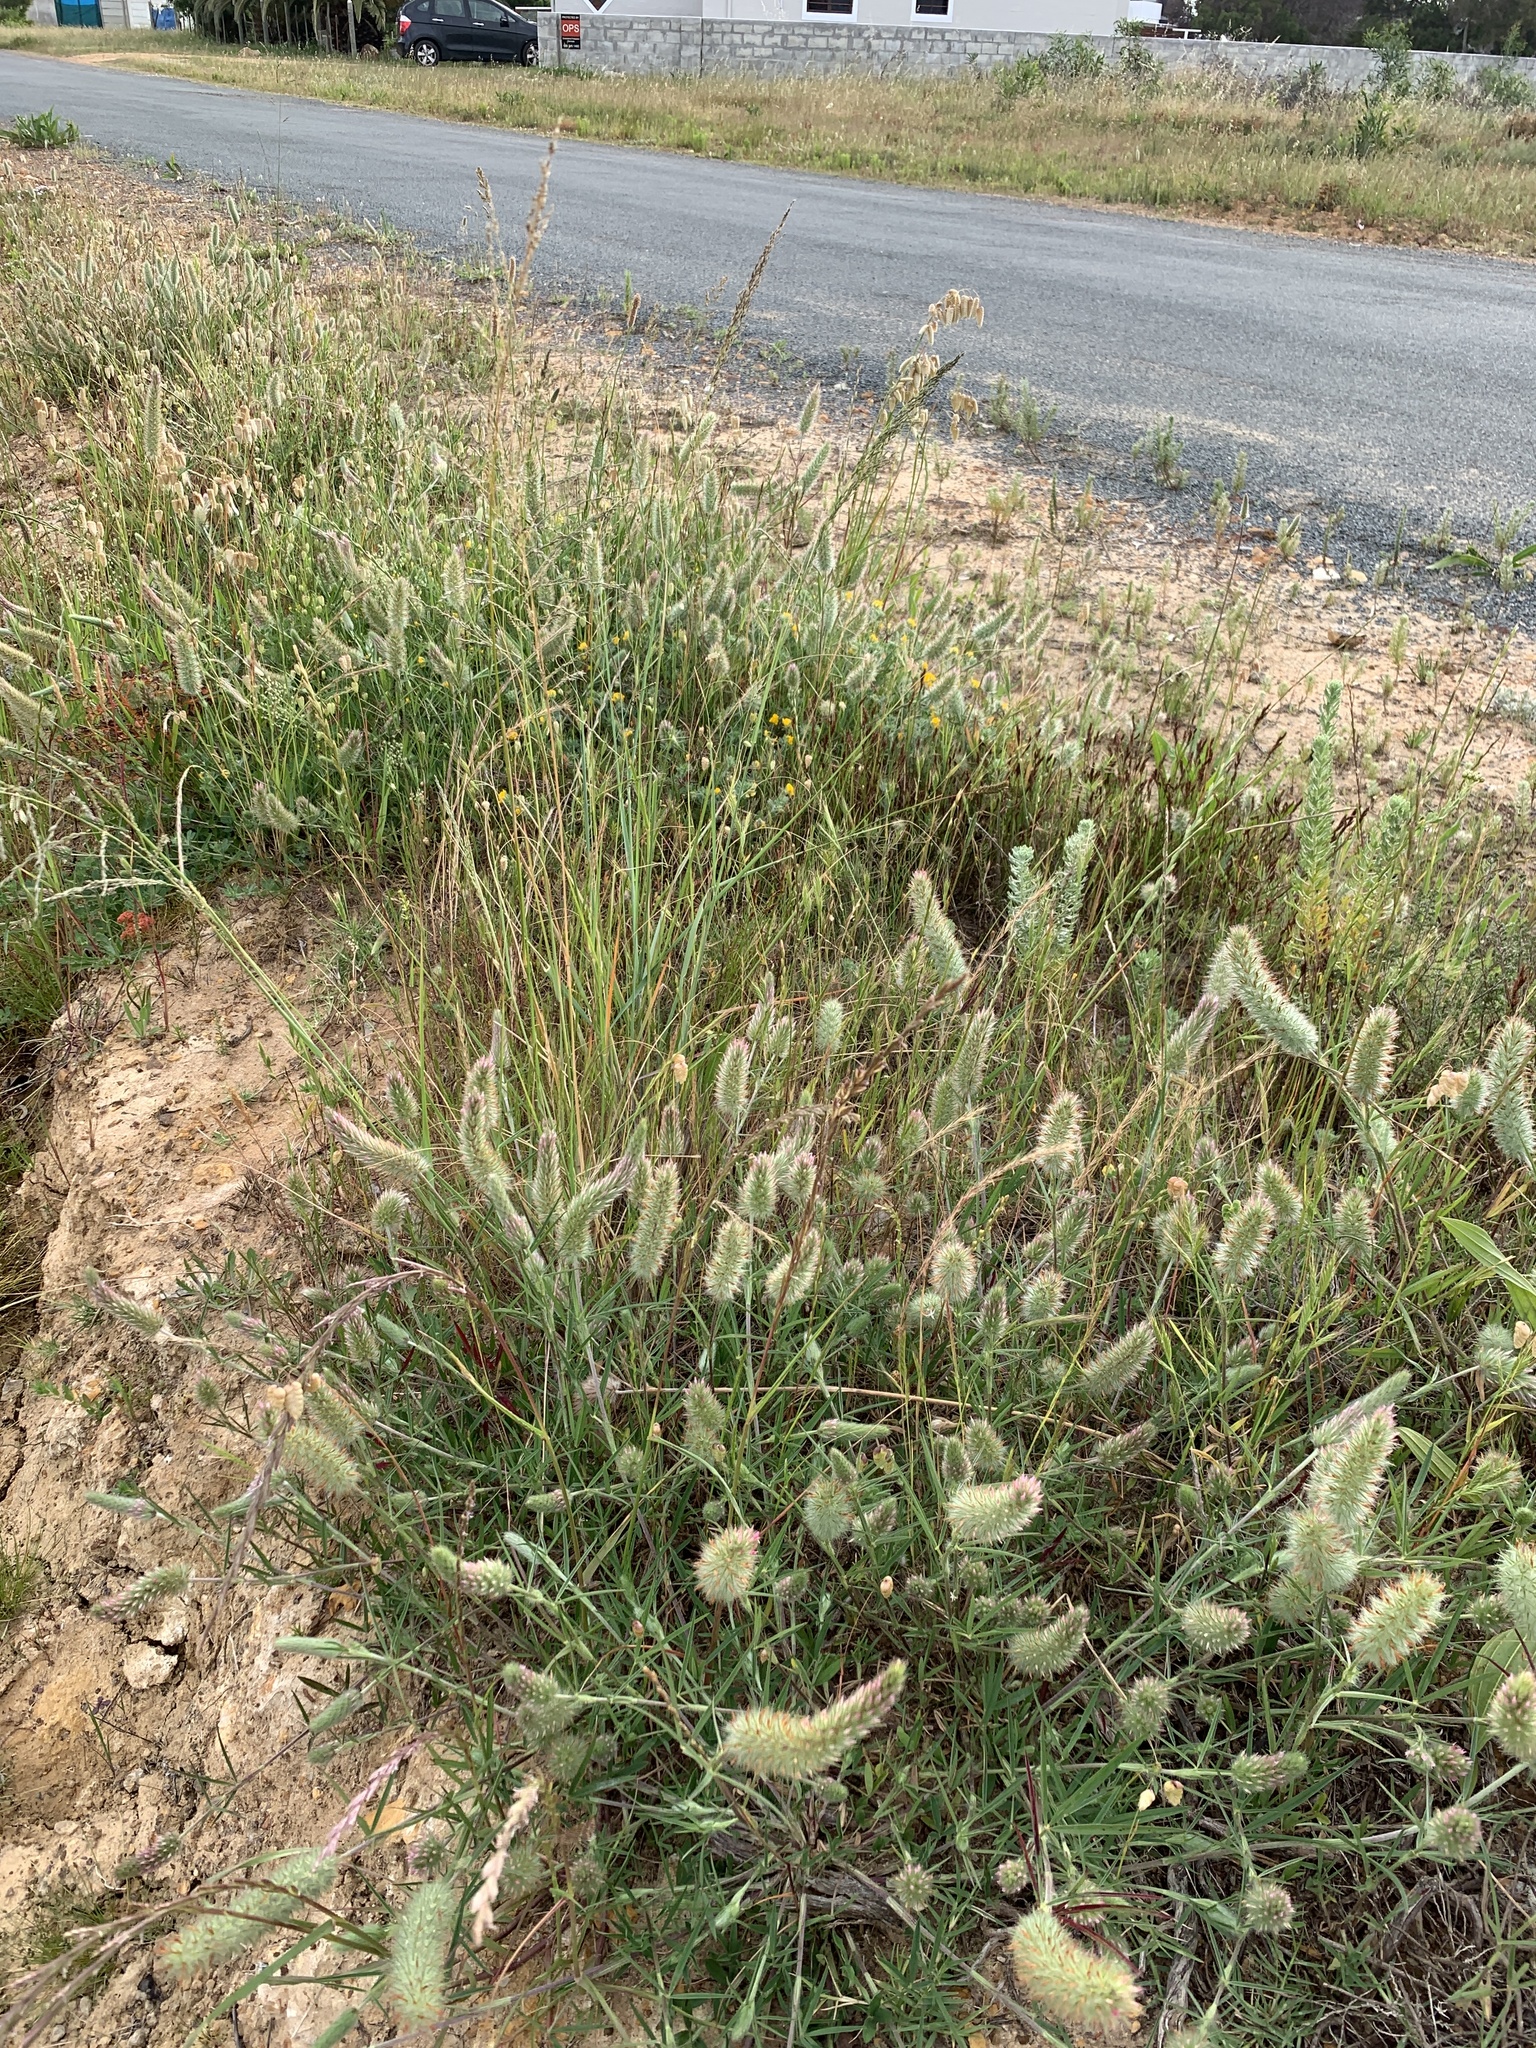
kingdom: Plantae
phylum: Tracheophyta
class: Magnoliopsida
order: Fabales
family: Fabaceae
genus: Trifolium
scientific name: Trifolium angustifolium
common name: Narrow clover
